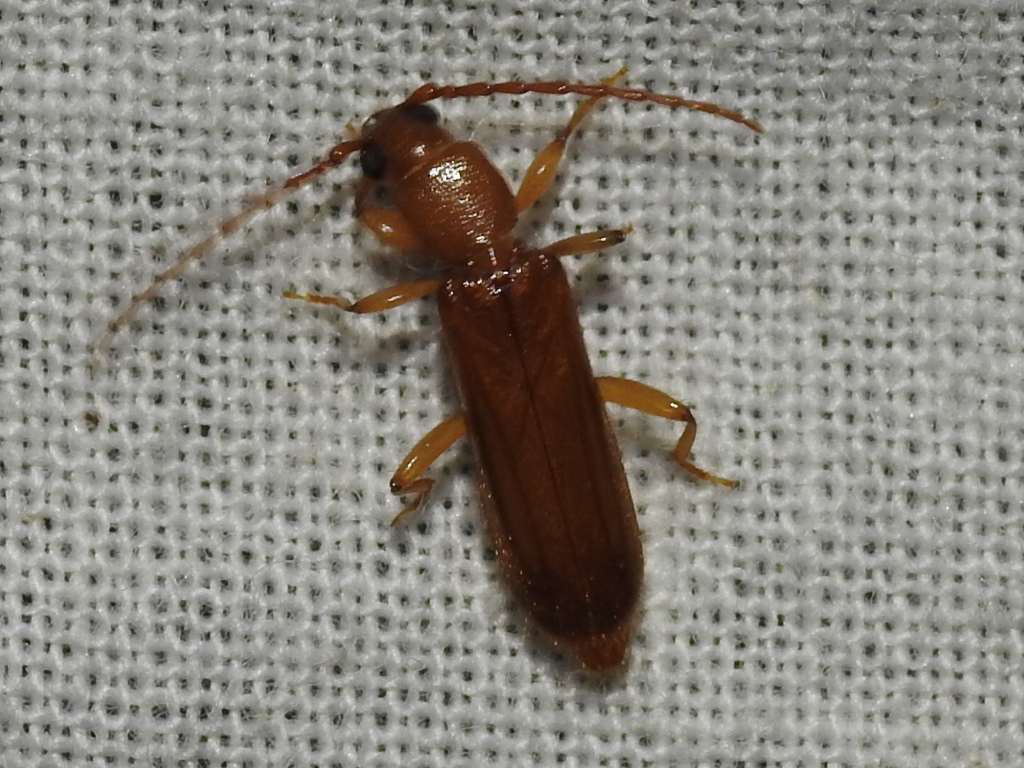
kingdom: Animalia
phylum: Arthropoda
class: Insecta
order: Coleoptera
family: Cerambycidae
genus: Smodicum
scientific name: Smodicum cucujiforme
